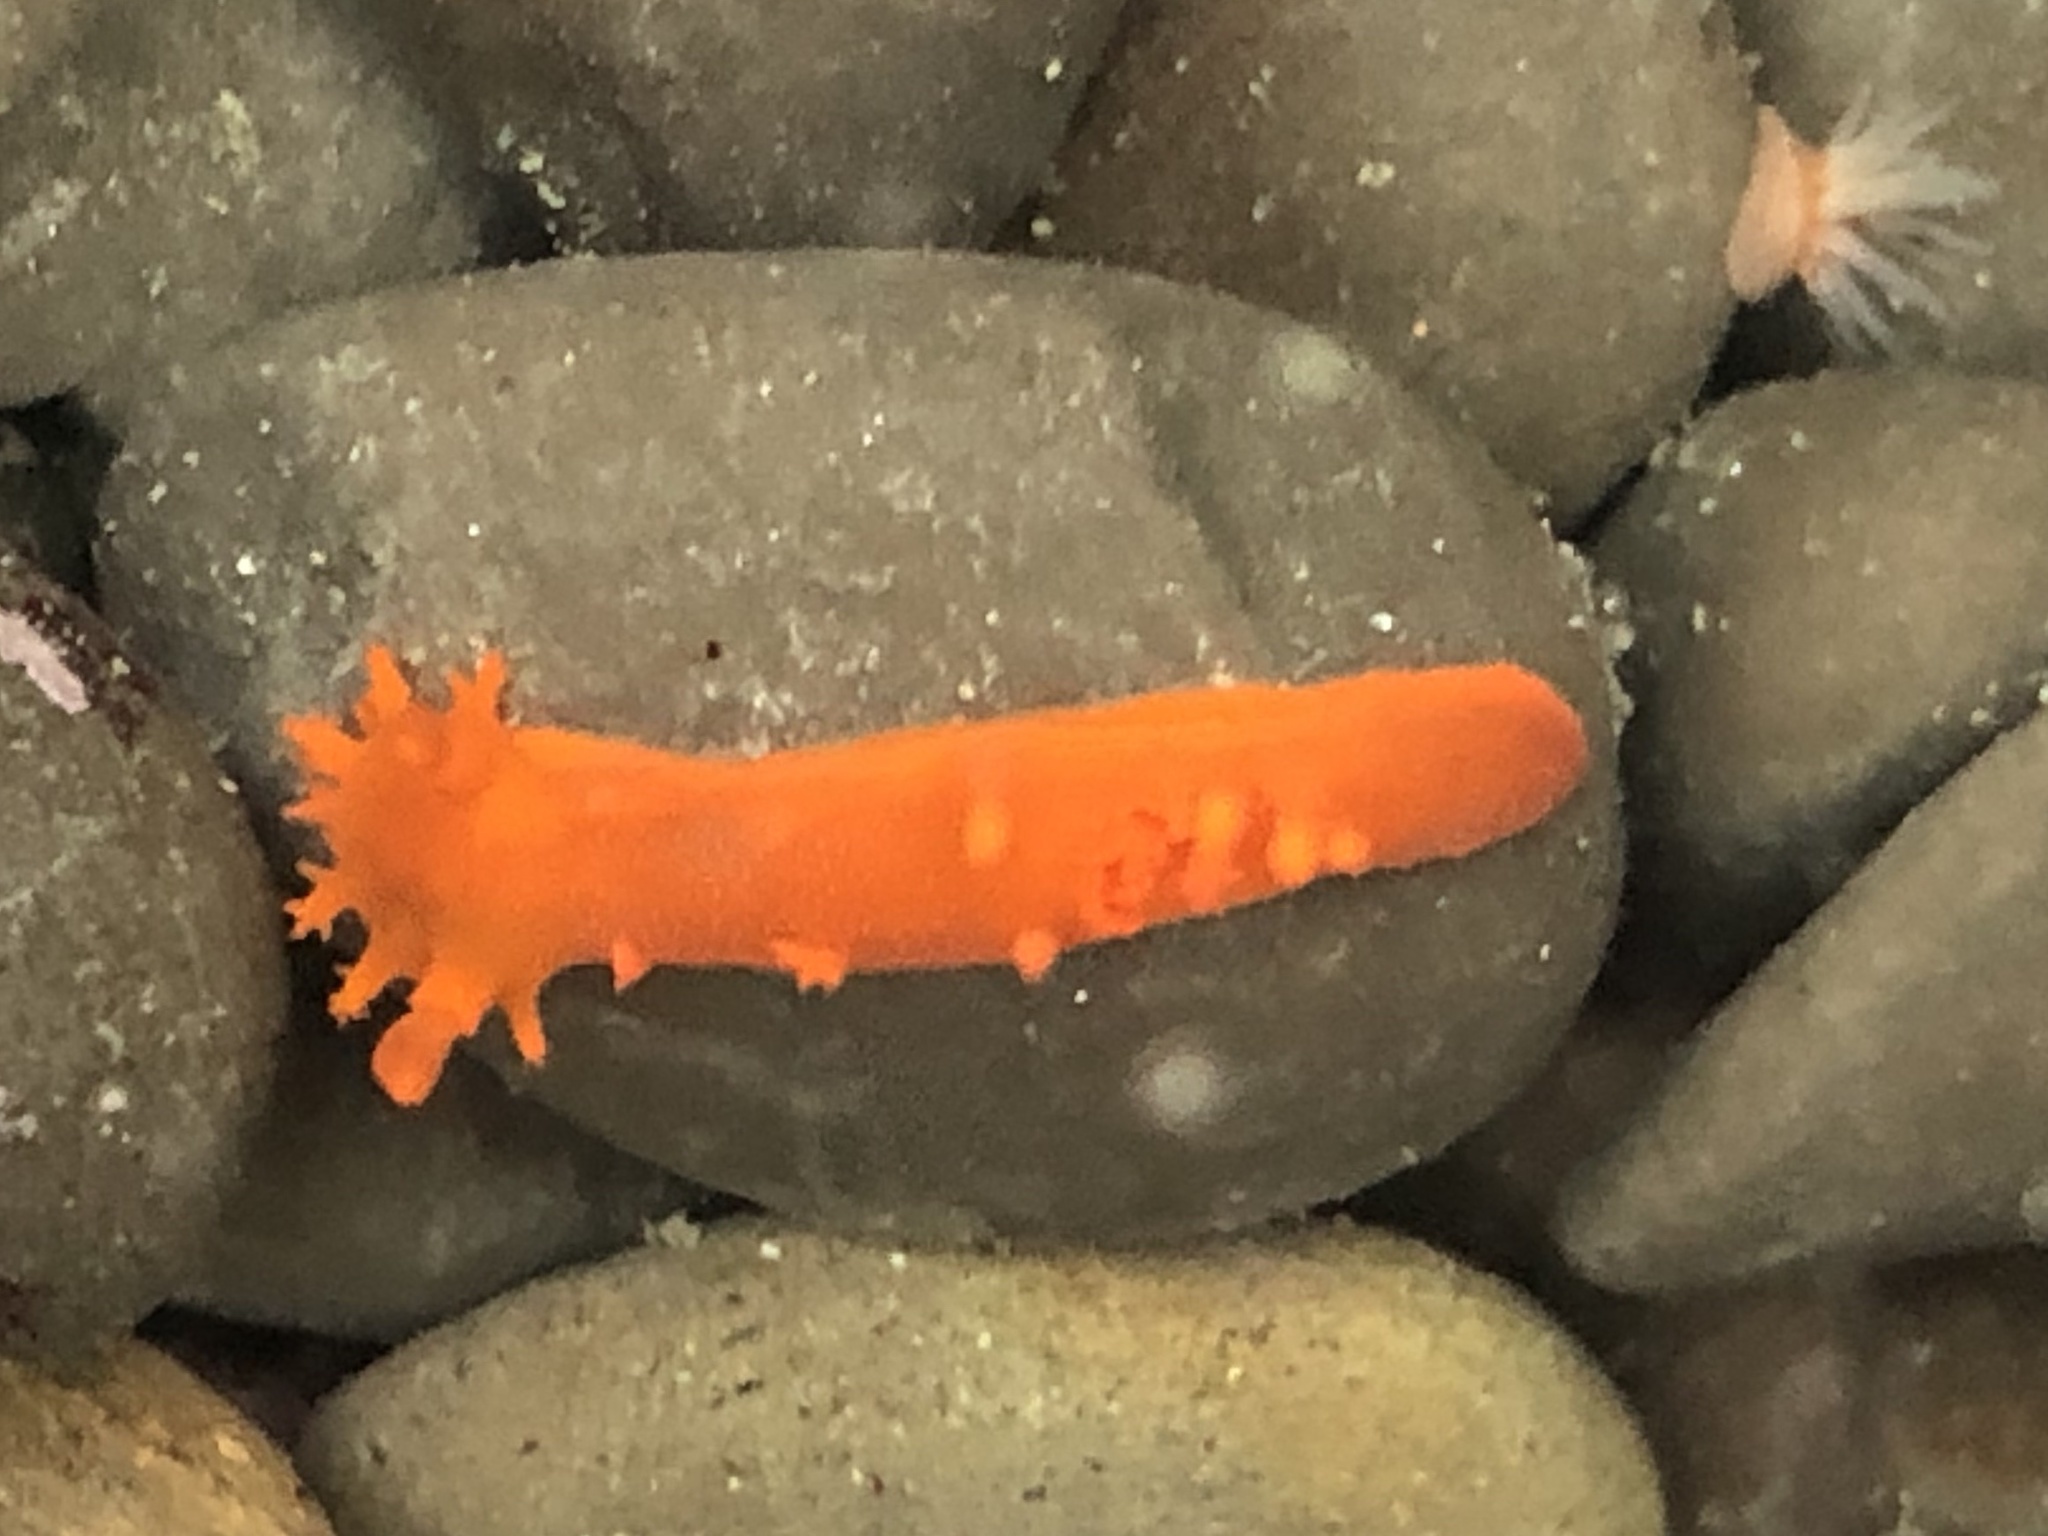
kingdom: Animalia
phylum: Mollusca
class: Gastropoda
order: Nudibranchia
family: Polyceridae
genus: Triopha
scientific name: Triopha maculata
